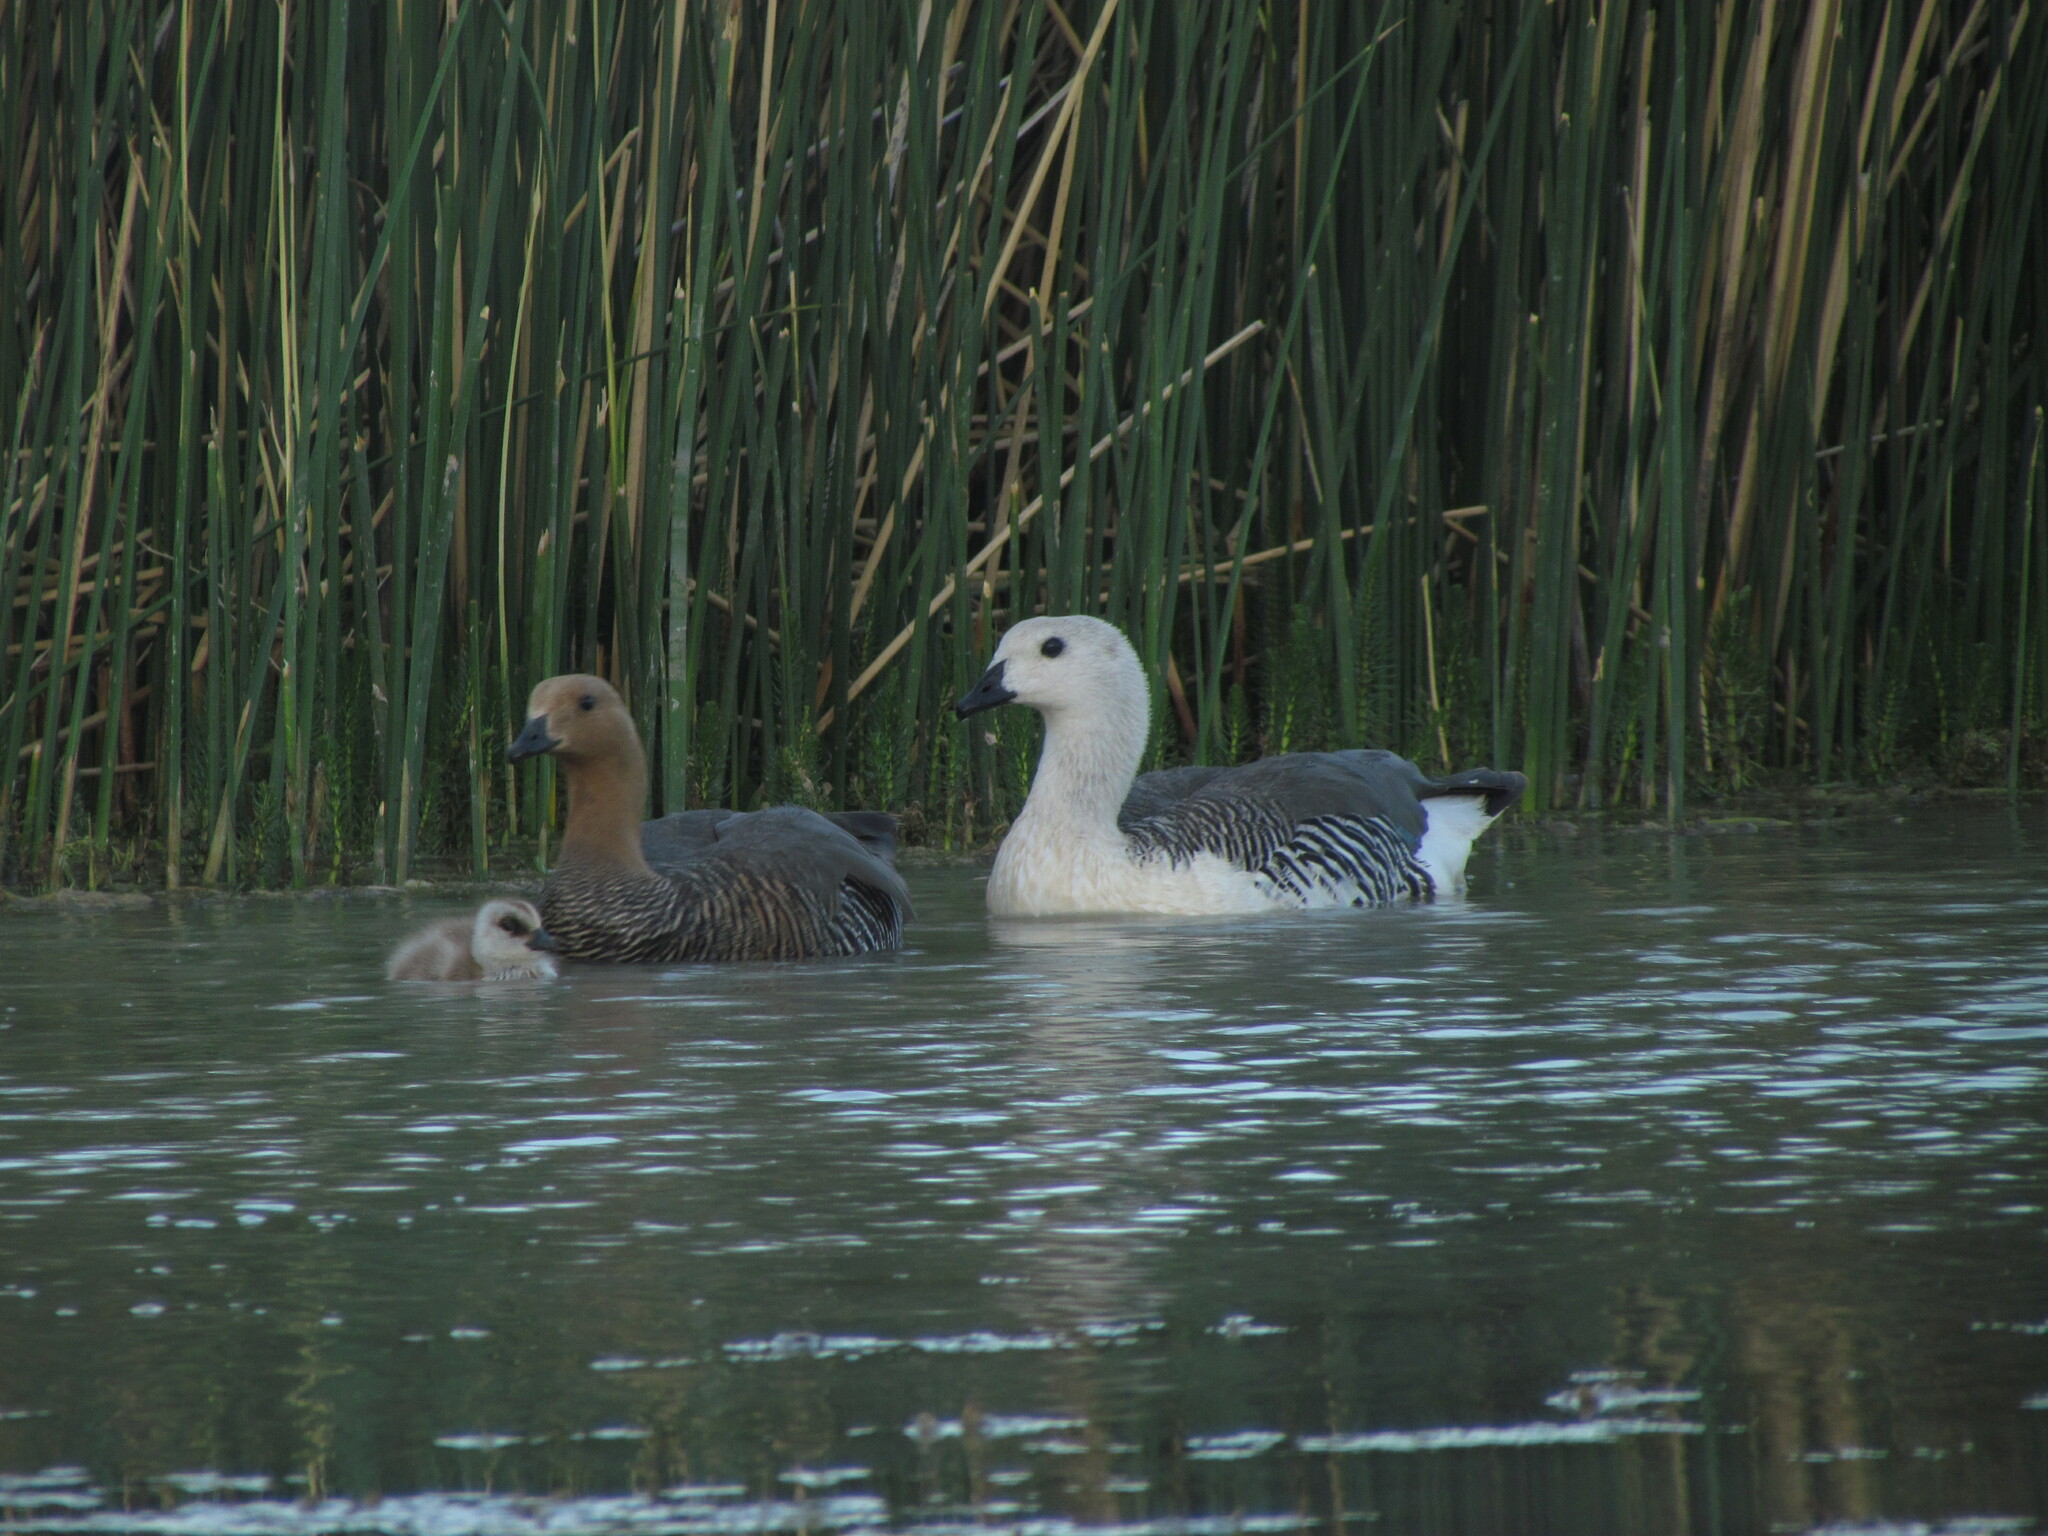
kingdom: Animalia
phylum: Chordata
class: Aves
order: Anseriformes
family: Anatidae
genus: Chloephaga
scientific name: Chloephaga picta
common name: Upland goose
